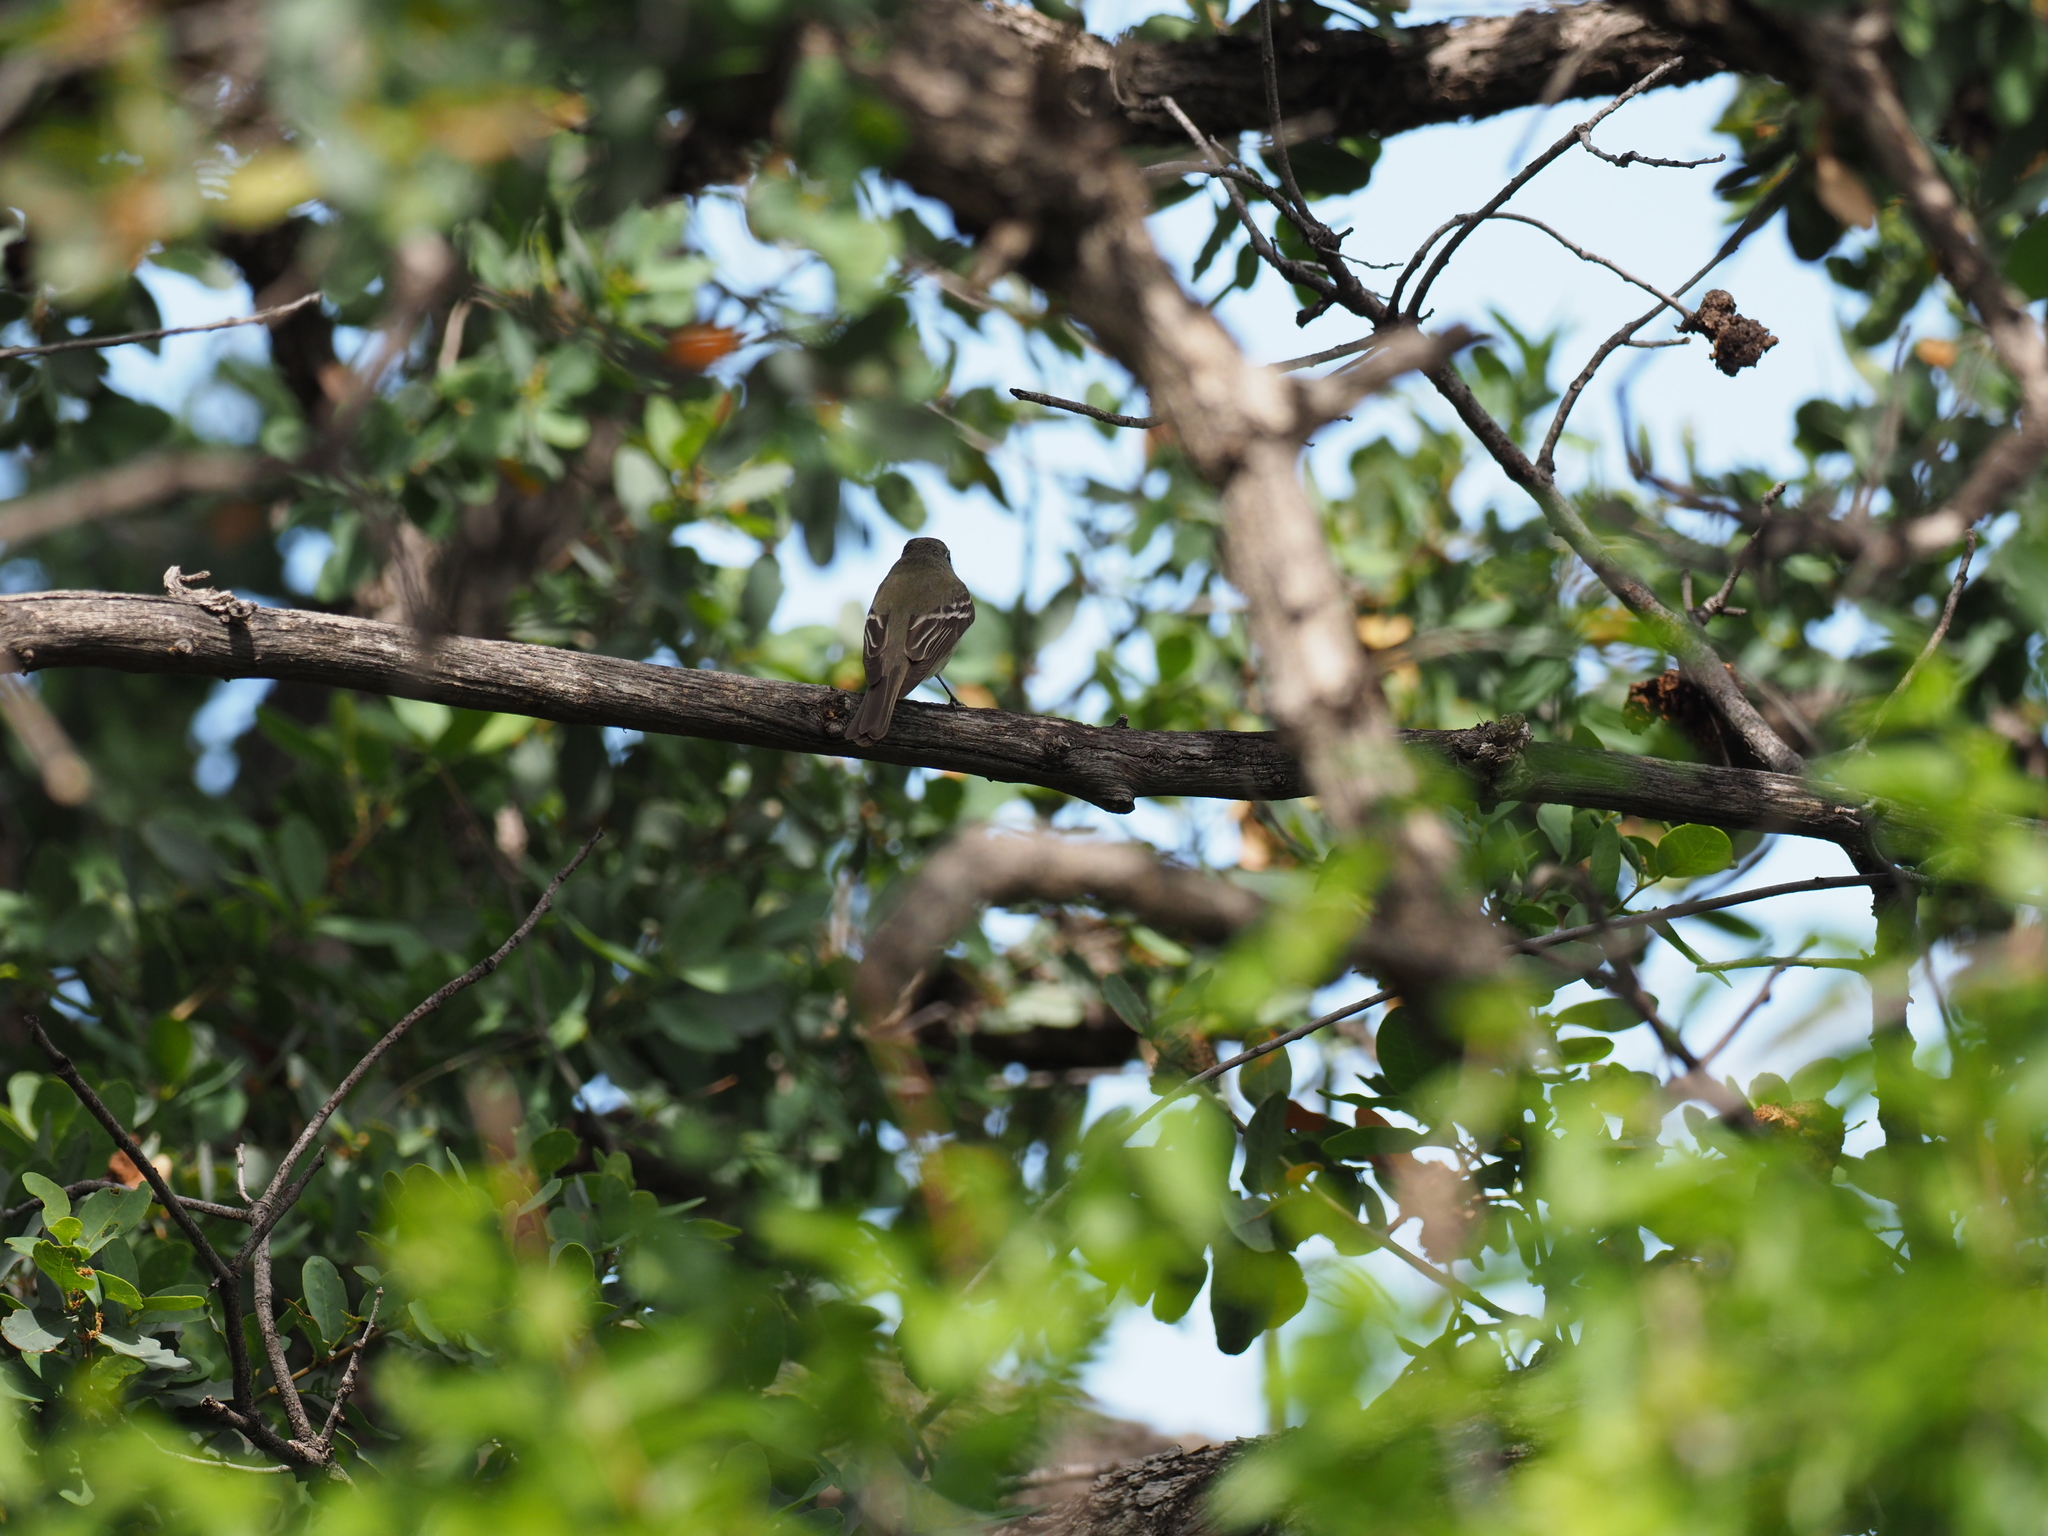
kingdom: Animalia
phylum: Chordata
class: Aves
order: Passeriformes
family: Tyrannidae
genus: Empidonax
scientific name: Empidonax
